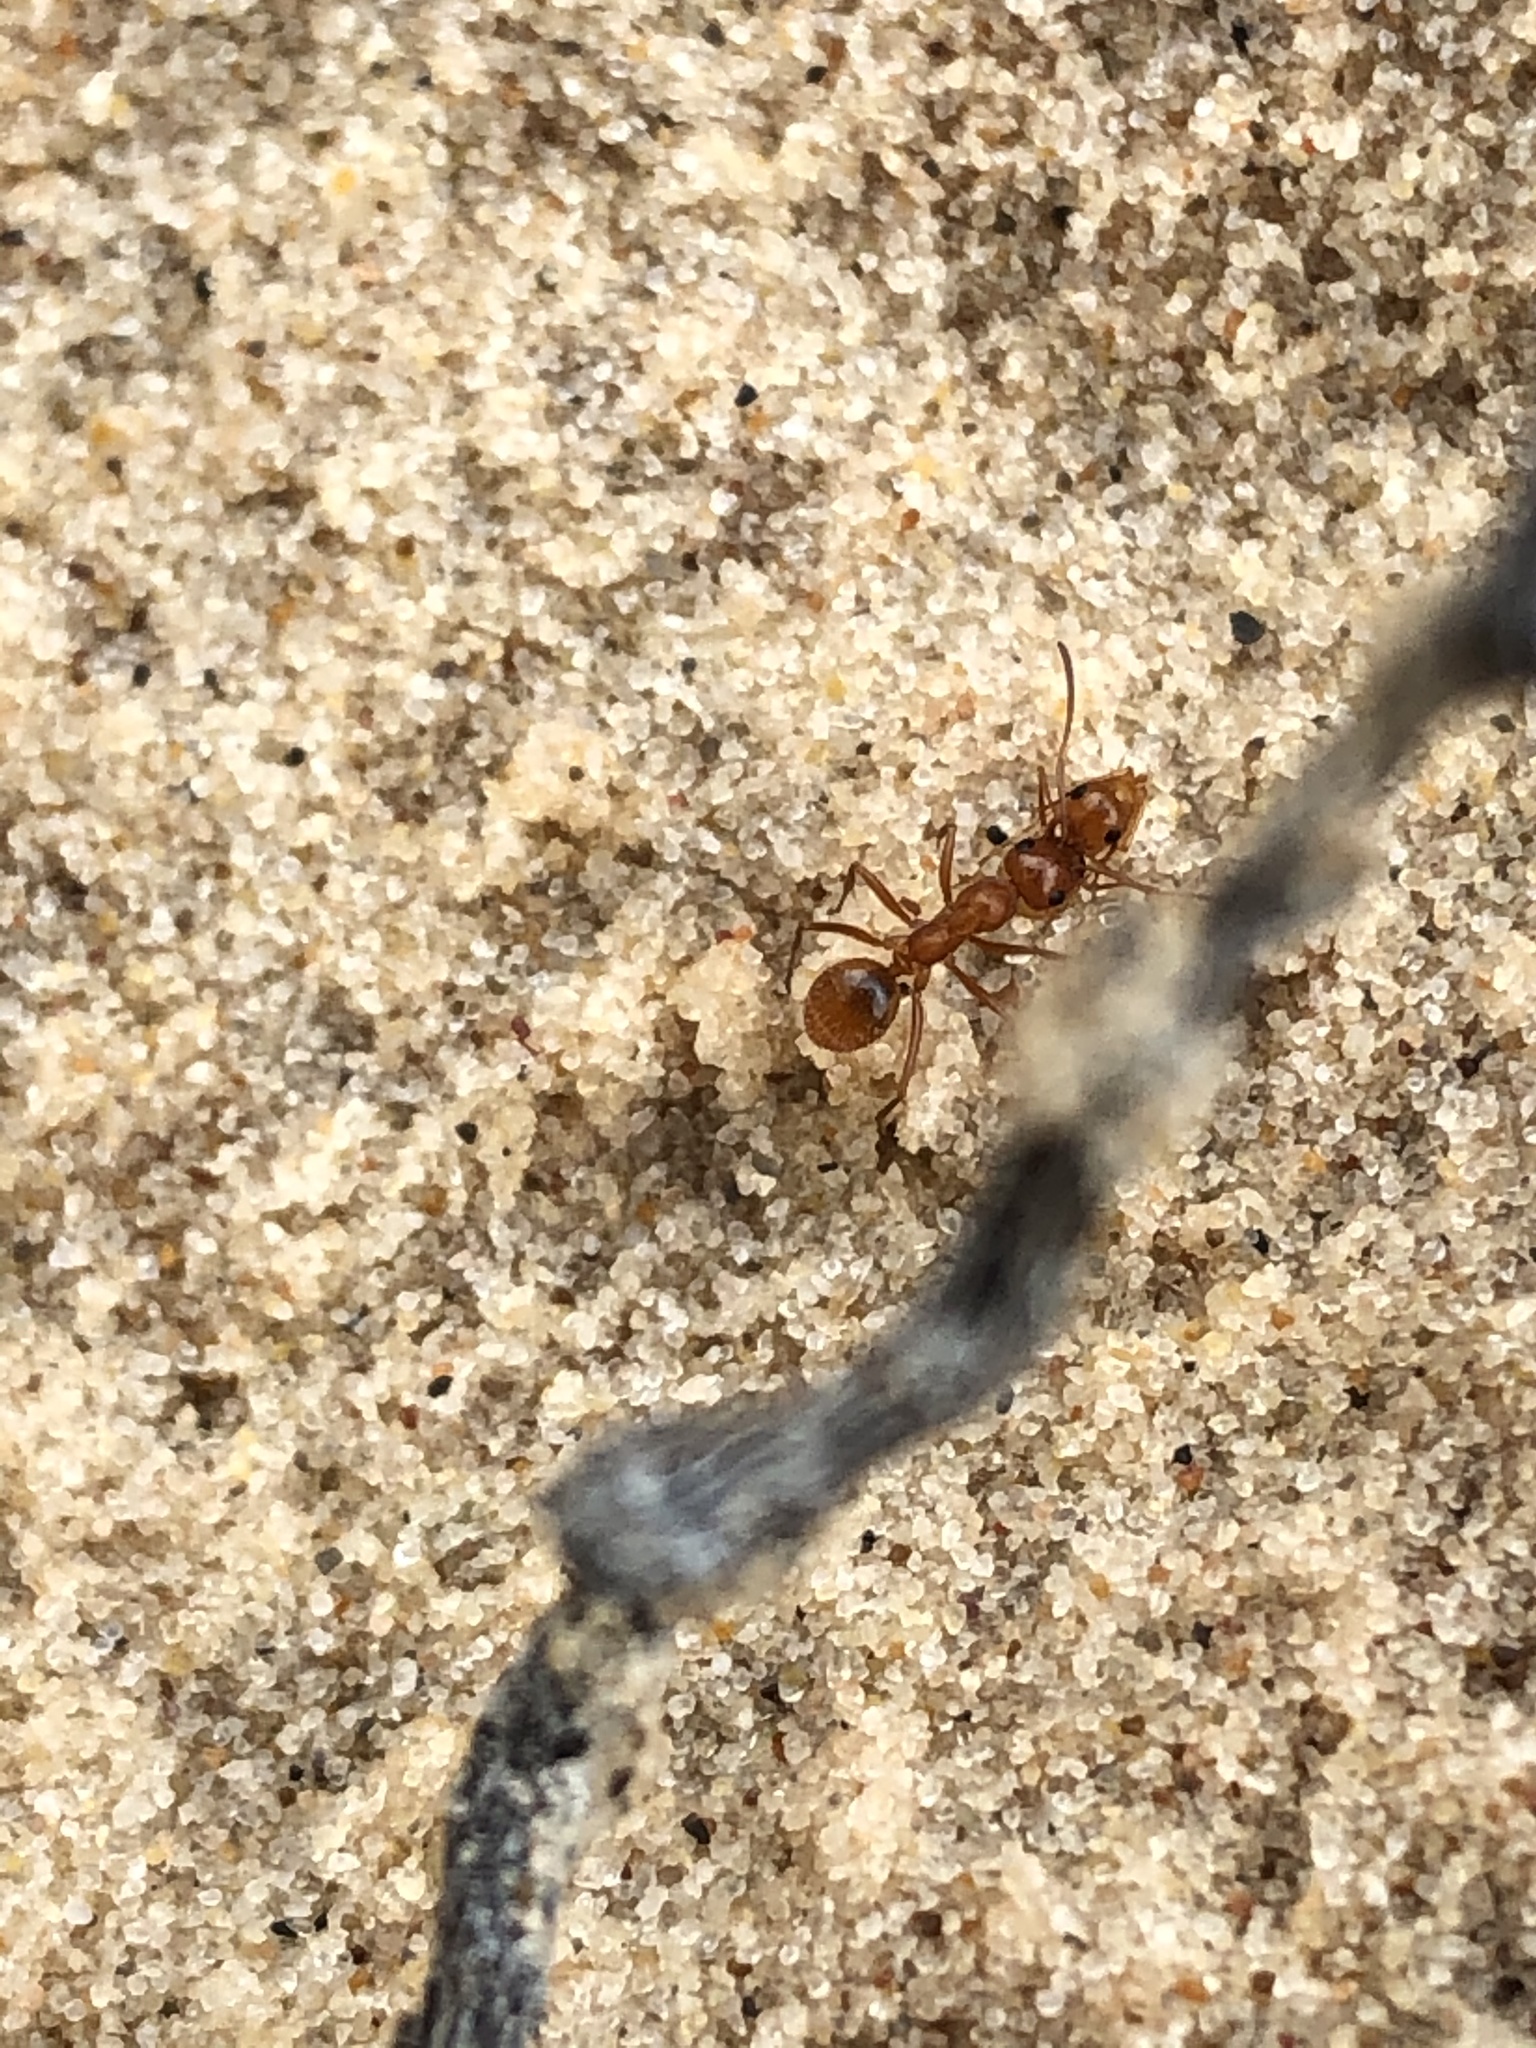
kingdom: Animalia
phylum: Arthropoda
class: Insecta
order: Hymenoptera
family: Formicidae
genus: Formica
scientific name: Formica bradleyi
